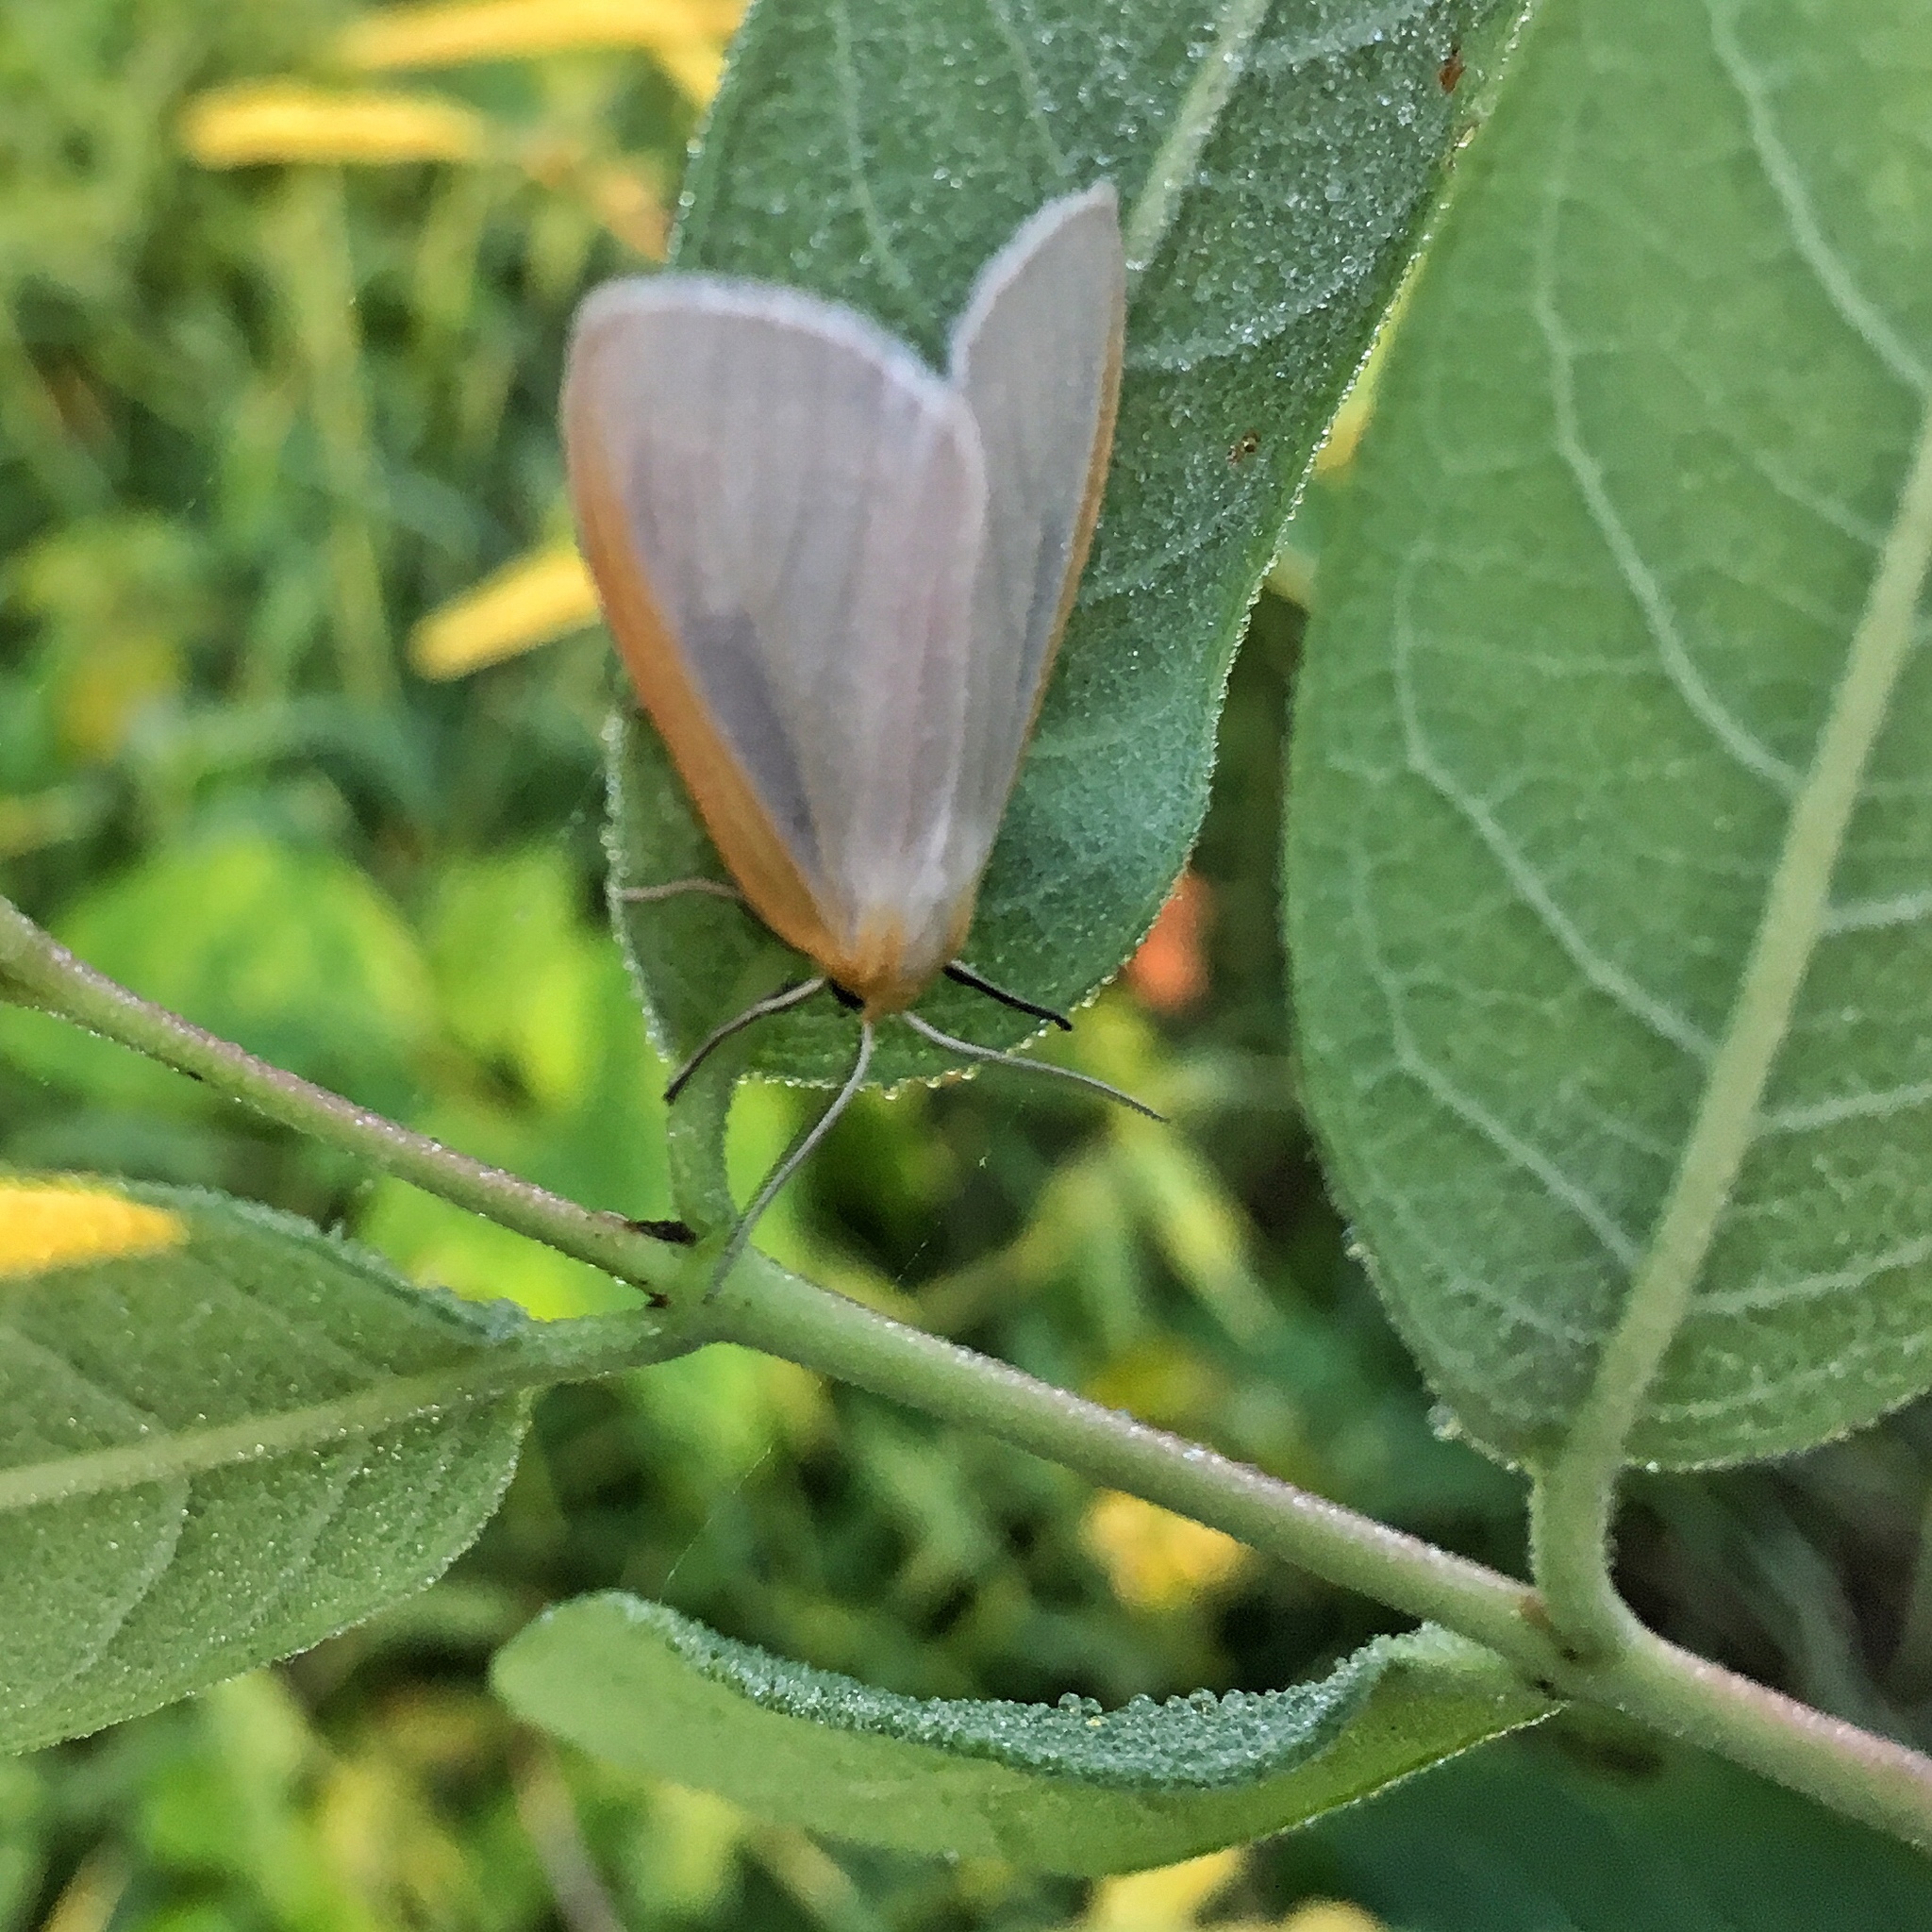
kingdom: Animalia
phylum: Arthropoda
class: Insecta
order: Lepidoptera
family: Erebidae
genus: Cycnia
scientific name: Cycnia tenera
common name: Delicate cycnia moth
